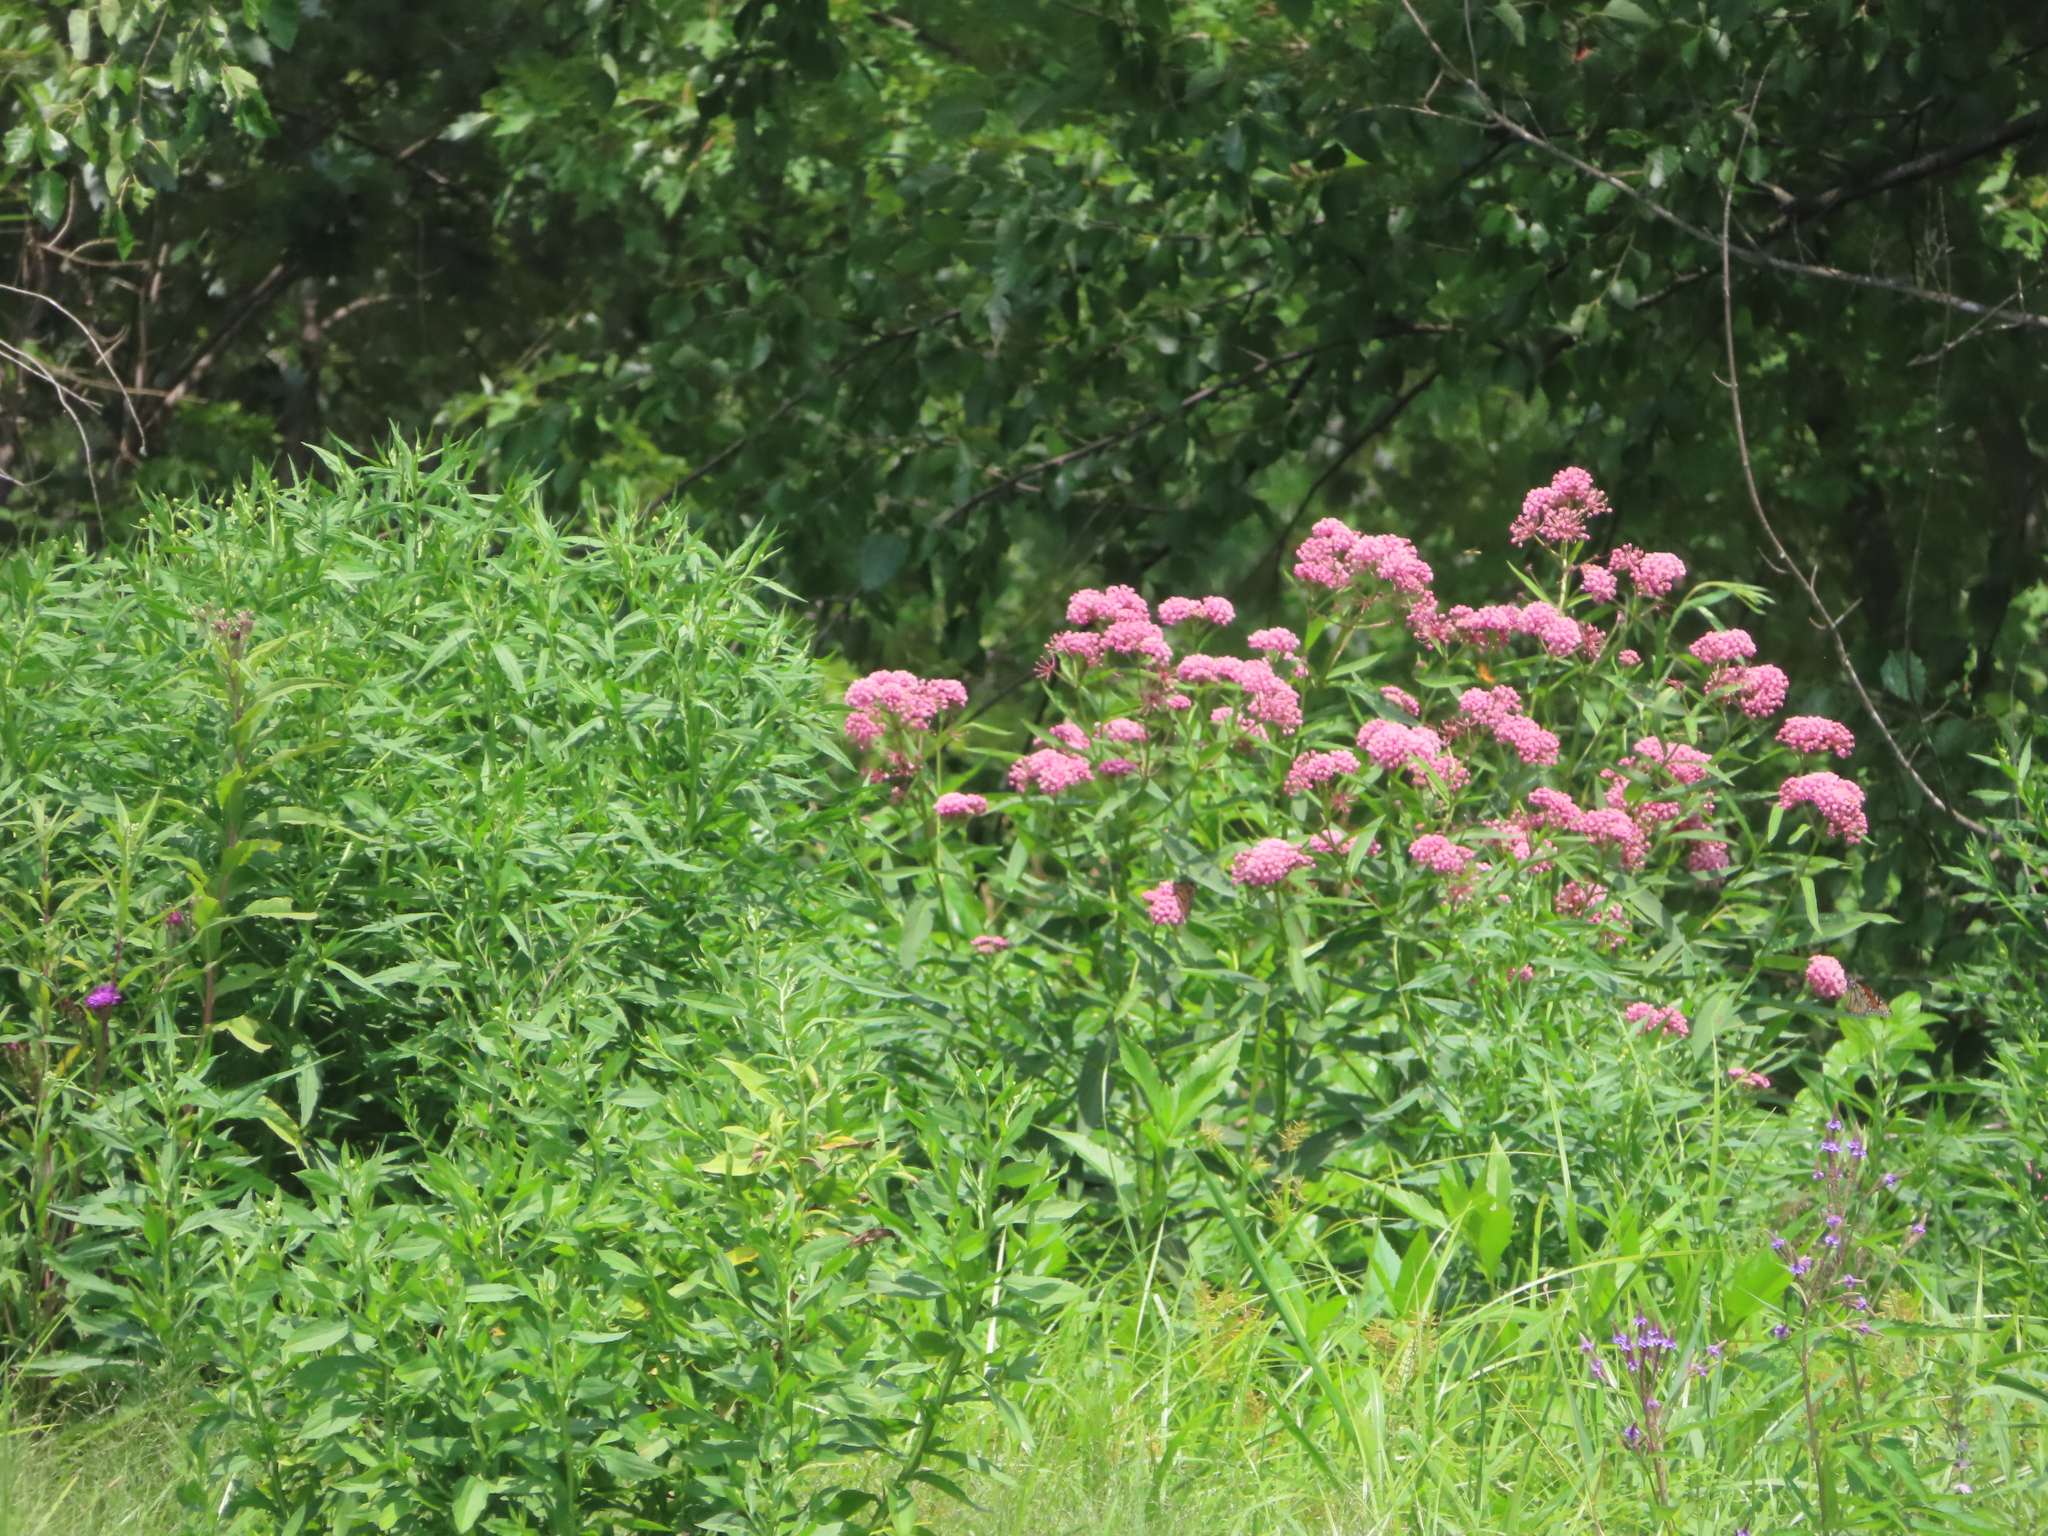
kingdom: Plantae
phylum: Tracheophyta
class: Magnoliopsida
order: Gentianales
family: Apocynaceae
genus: Asclepias
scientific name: Asclepias incarnata
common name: Swamp milkweed
